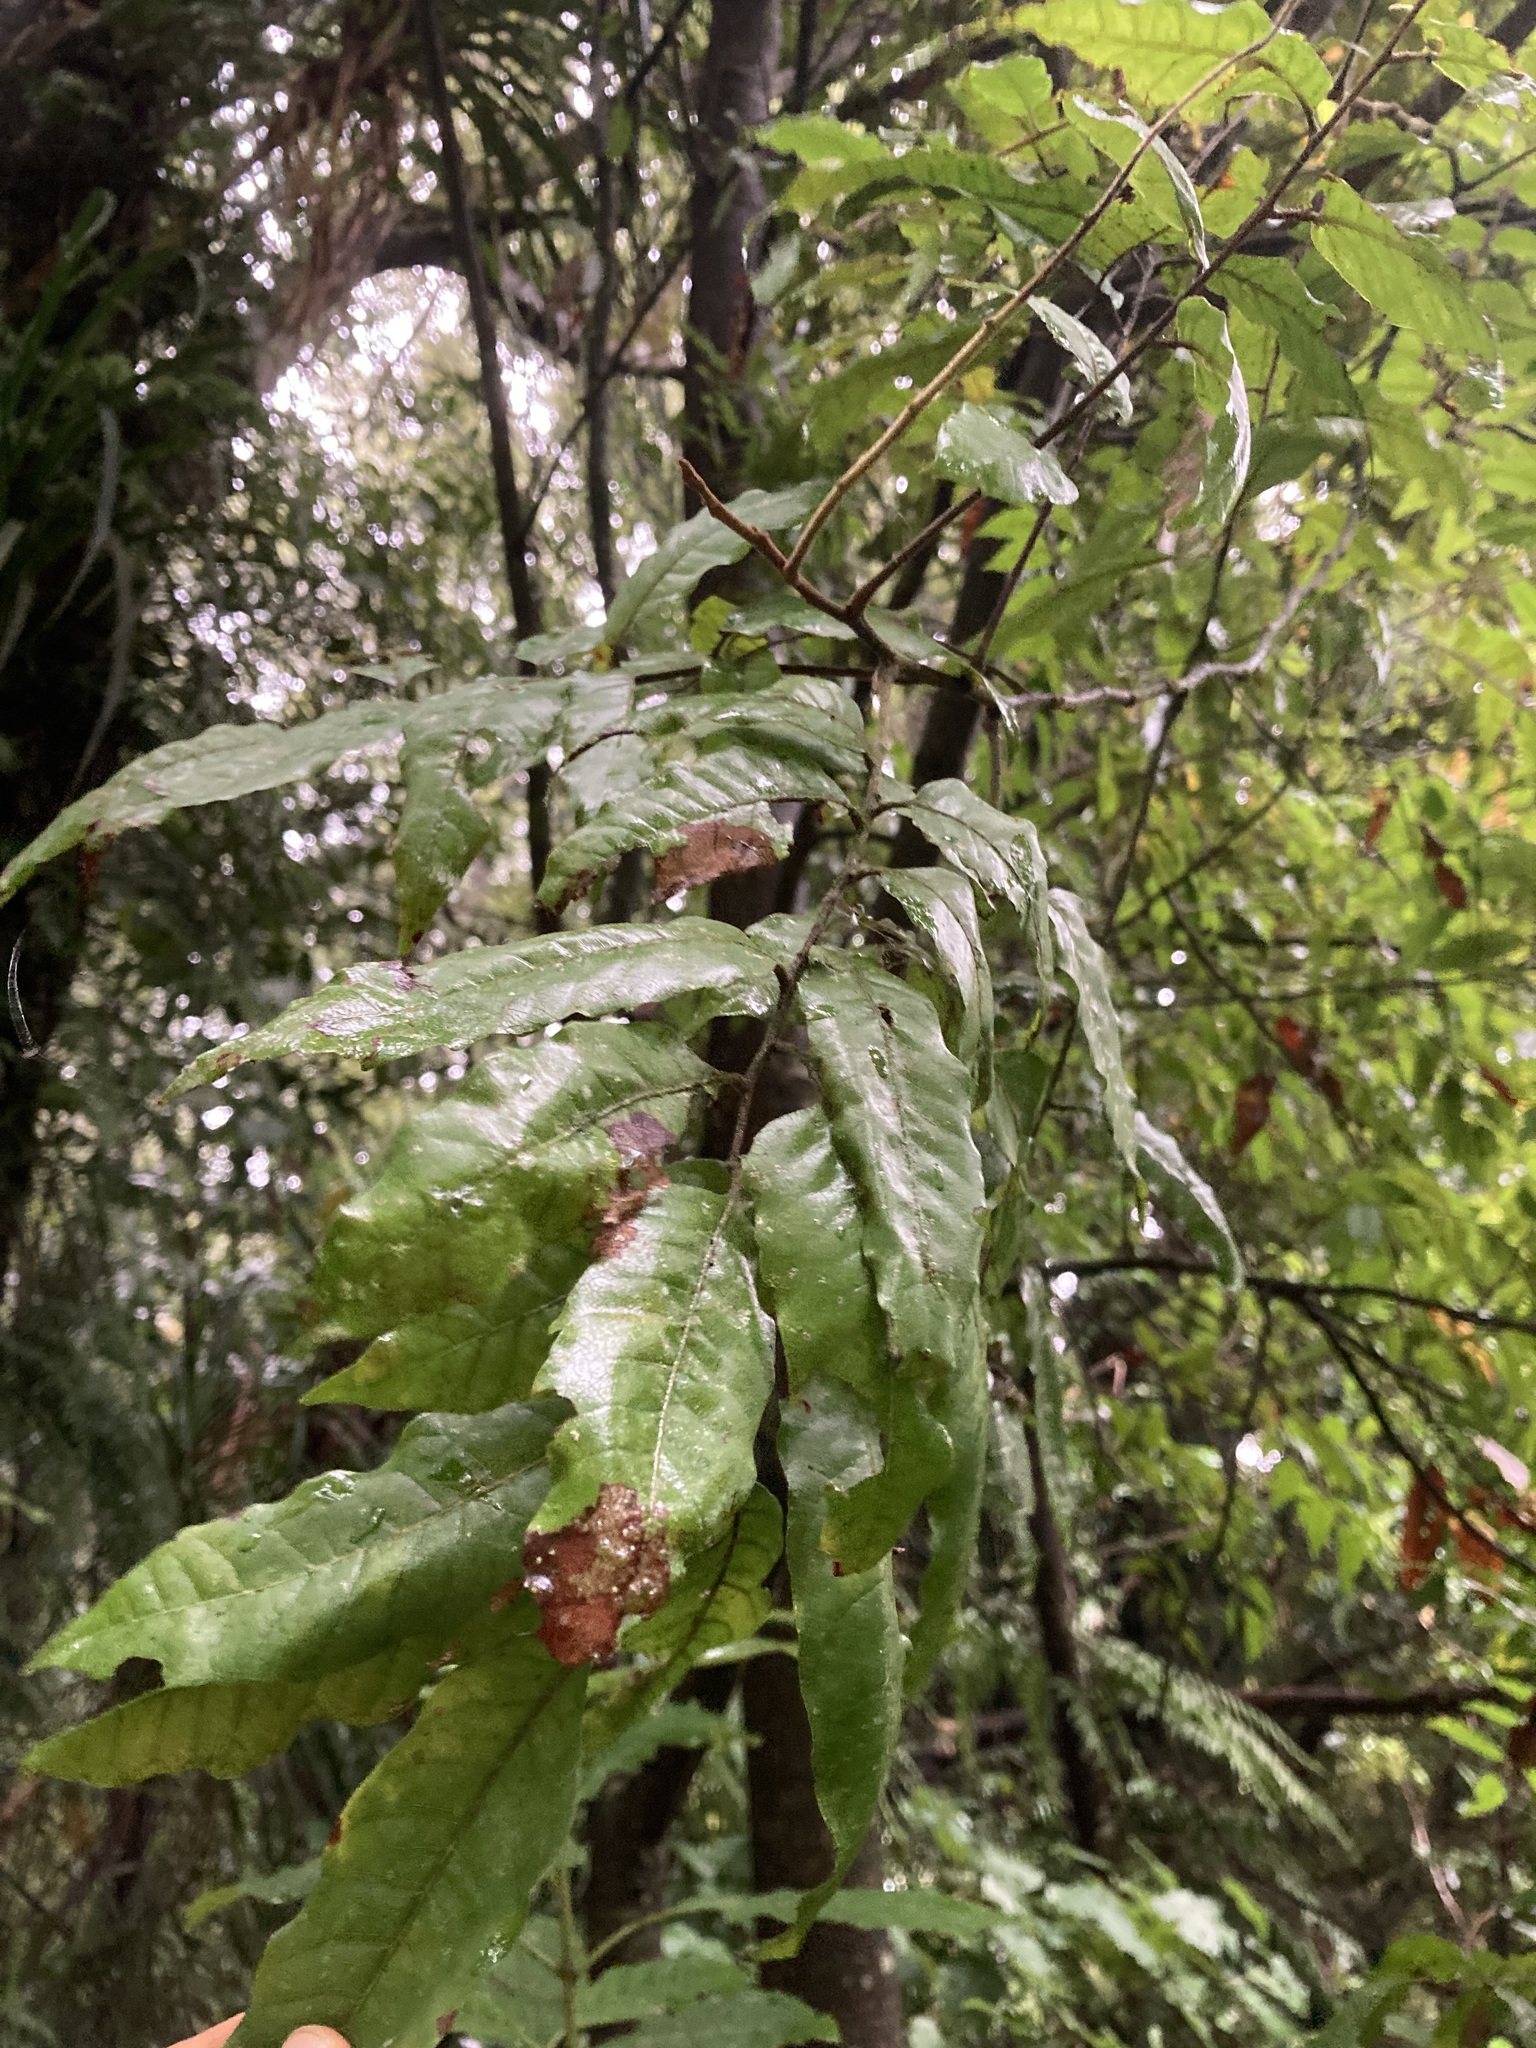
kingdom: Plantae
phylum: Tracheophyta
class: Magnoliopsida
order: Sapindales
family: Sapindaceae
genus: Alectryon
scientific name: Alectryon excelsus
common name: Three kings titoki
